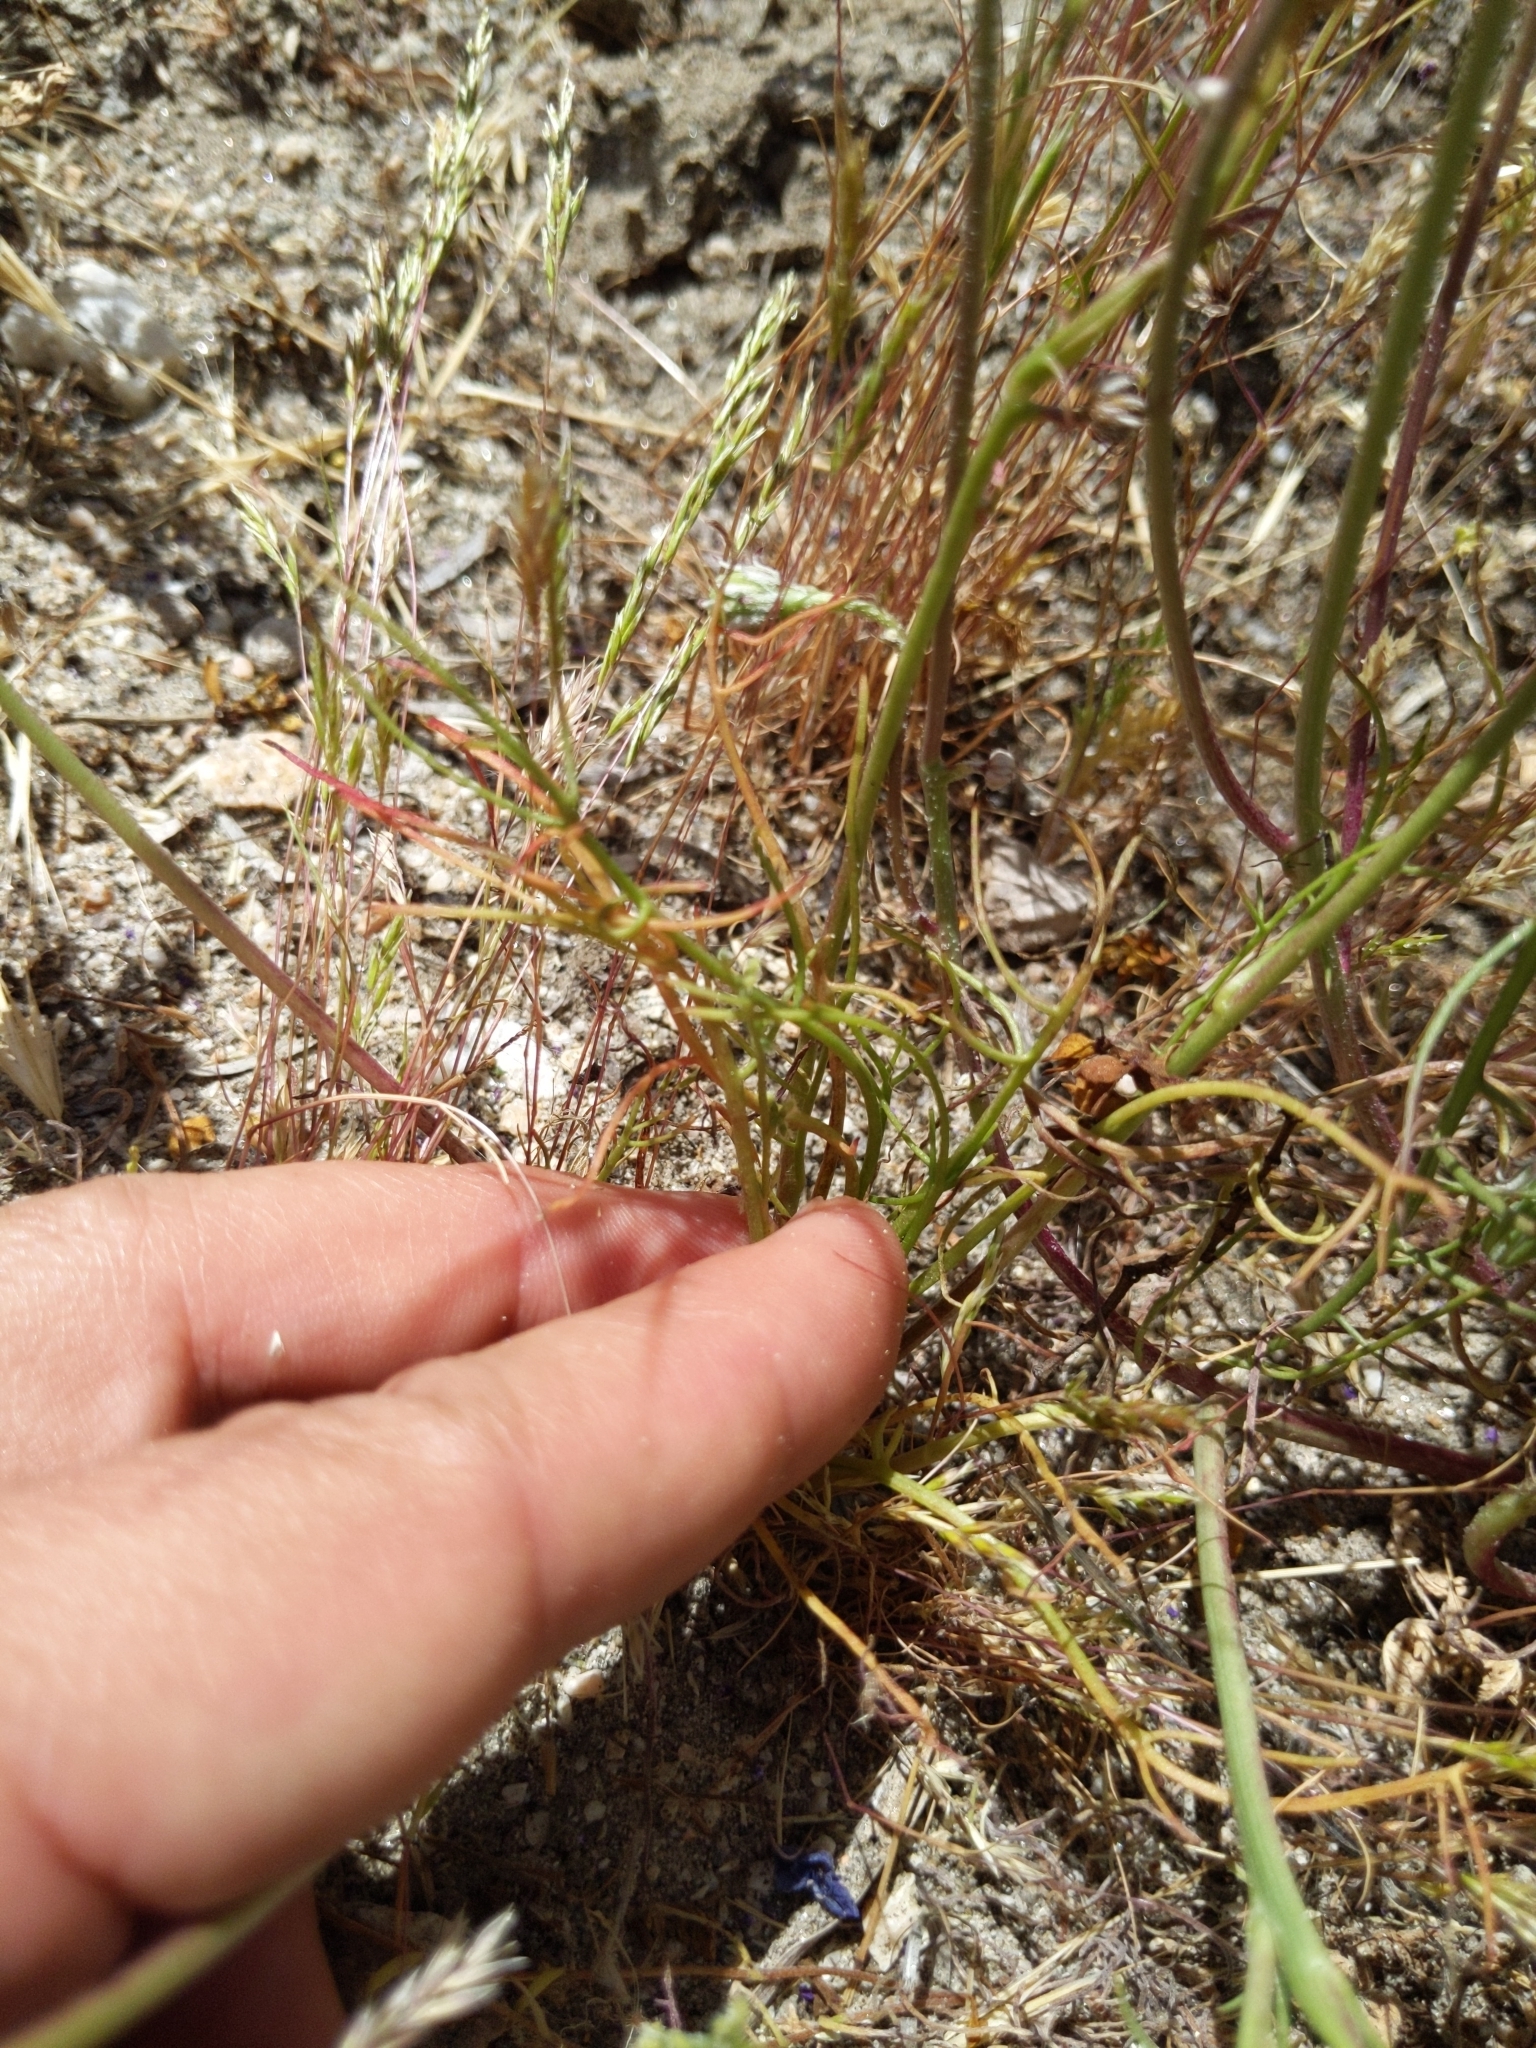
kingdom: Plantae
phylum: Tracheophyta
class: Magnoliopsida
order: Asterales
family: Asteraceae
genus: Malacothrix
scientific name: Malacothrix glabrata
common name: Smooth desert-dandelion
